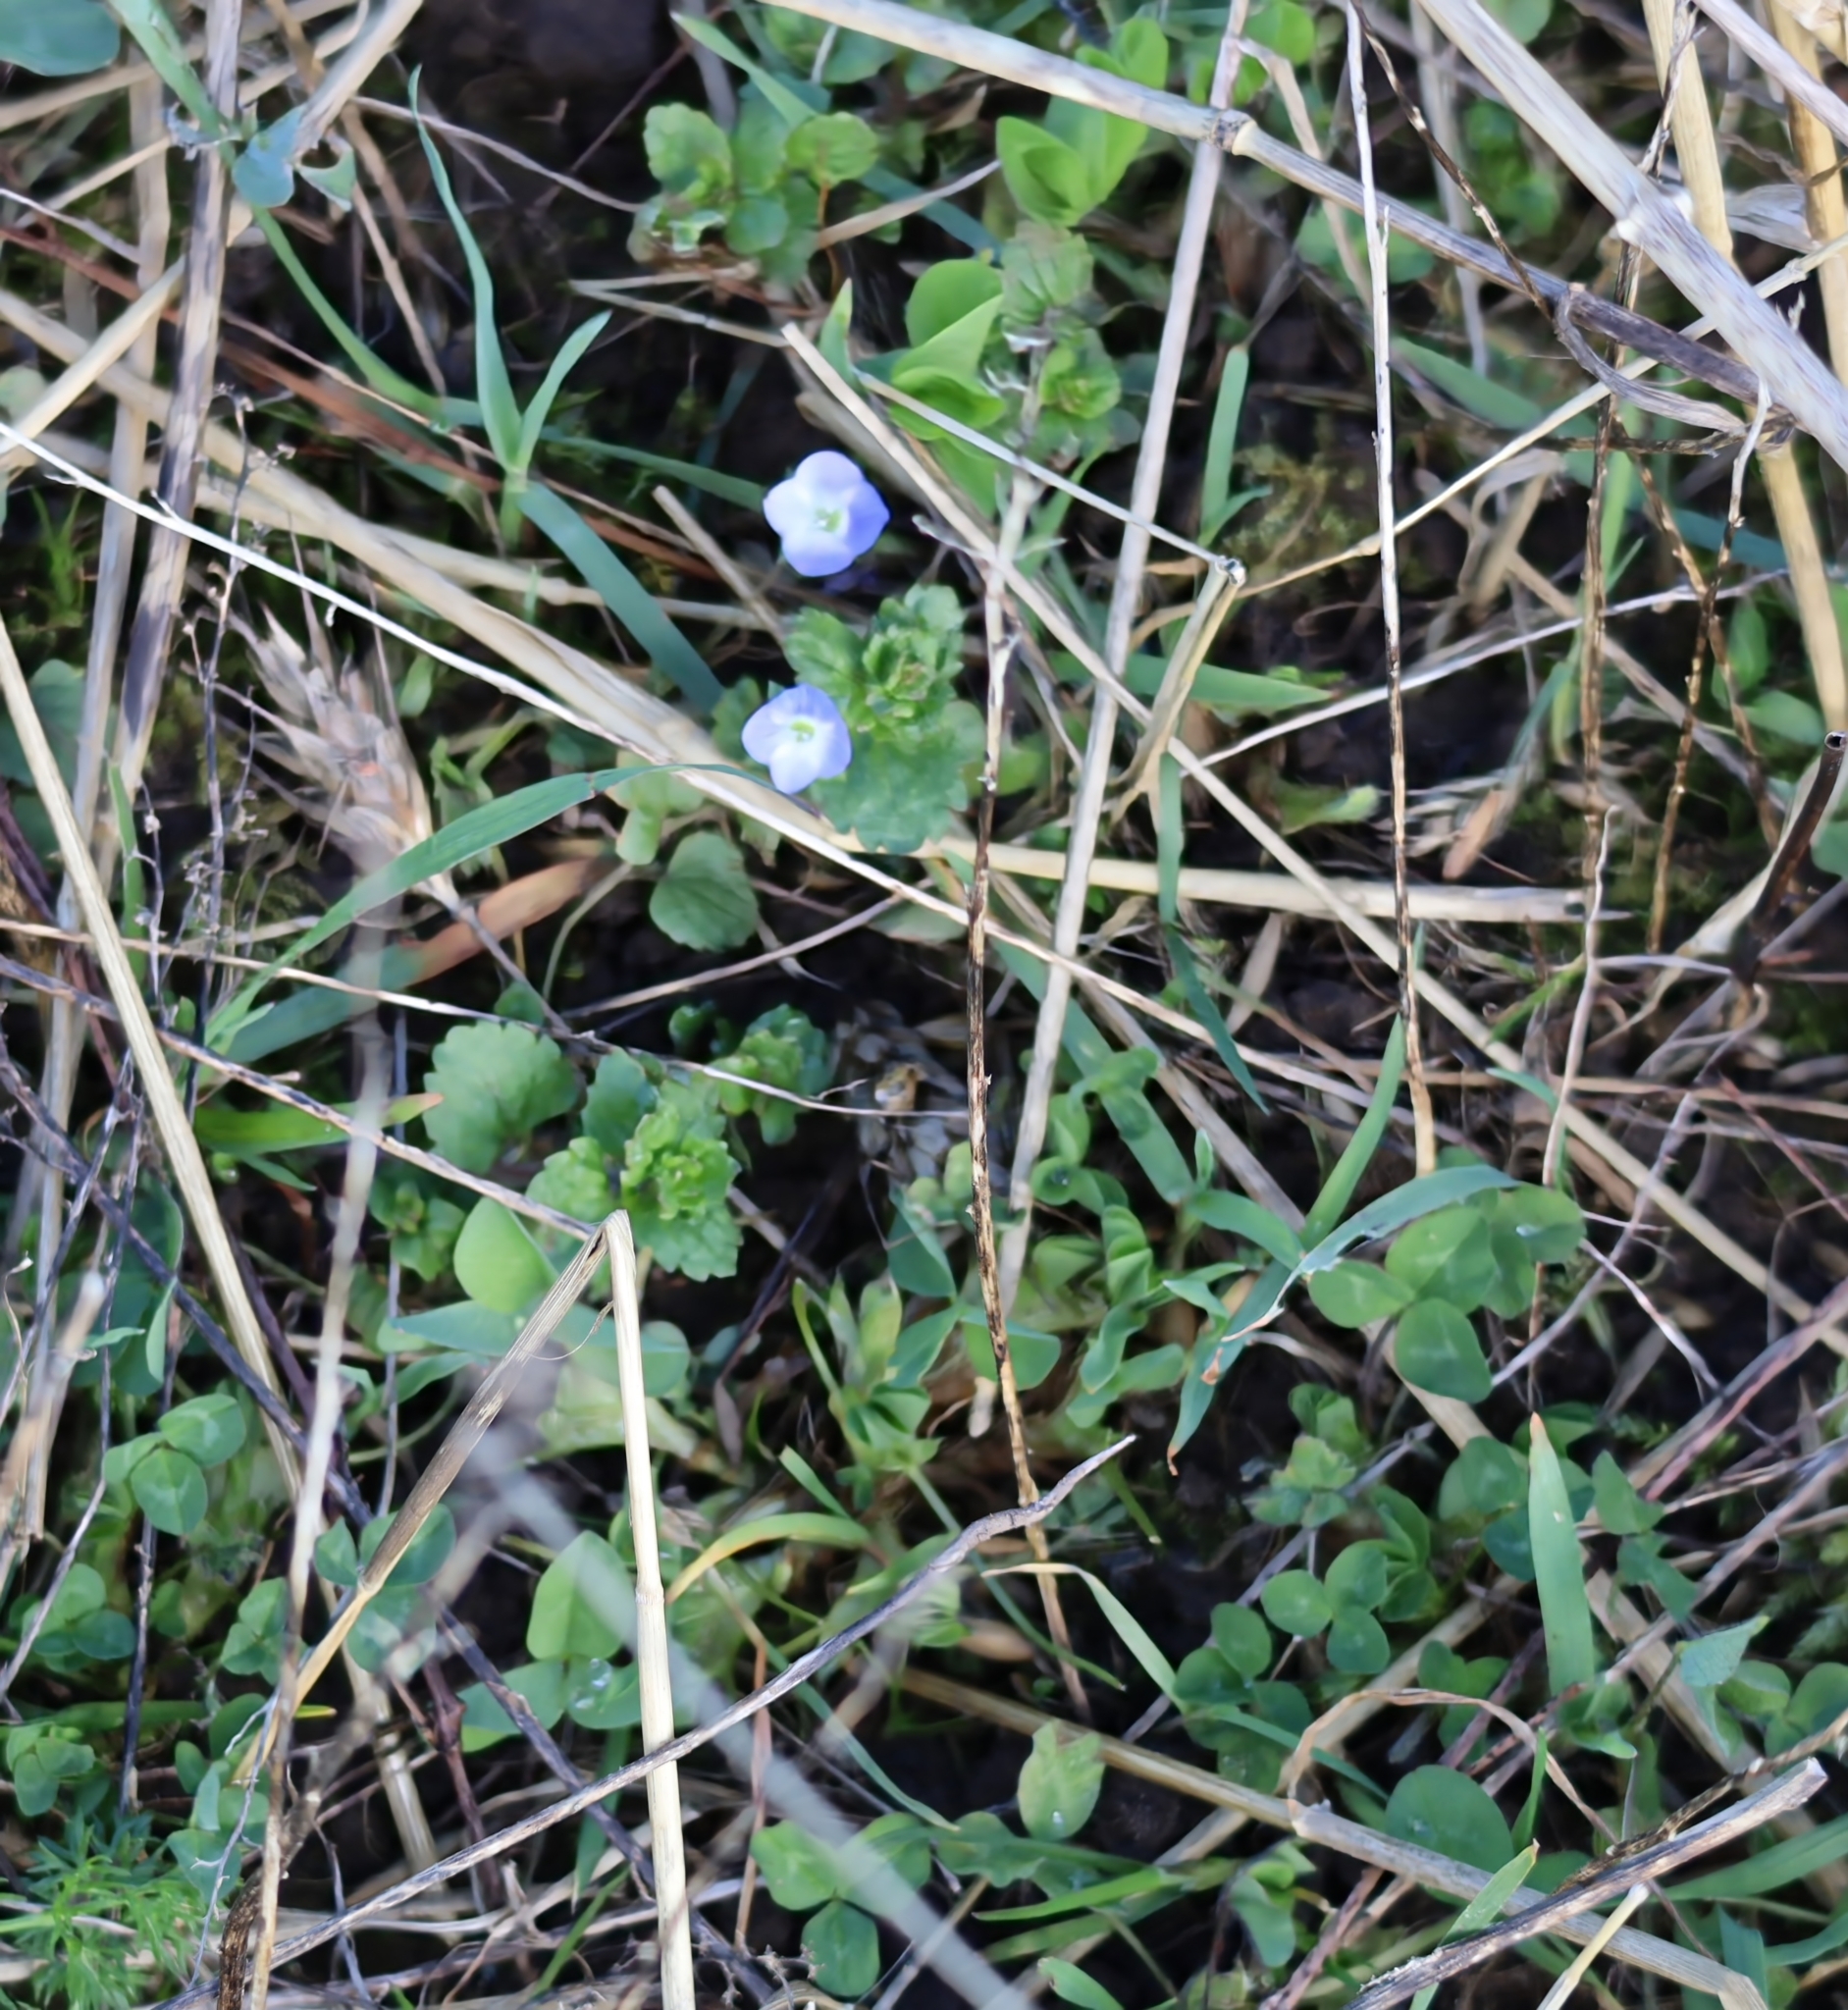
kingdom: Plantae
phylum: Tracheophyta
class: Magnoliopsida
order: Lamiales
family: Plantaginaceae
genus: Veronica
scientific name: Veronica persica
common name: Common field-speedwell
